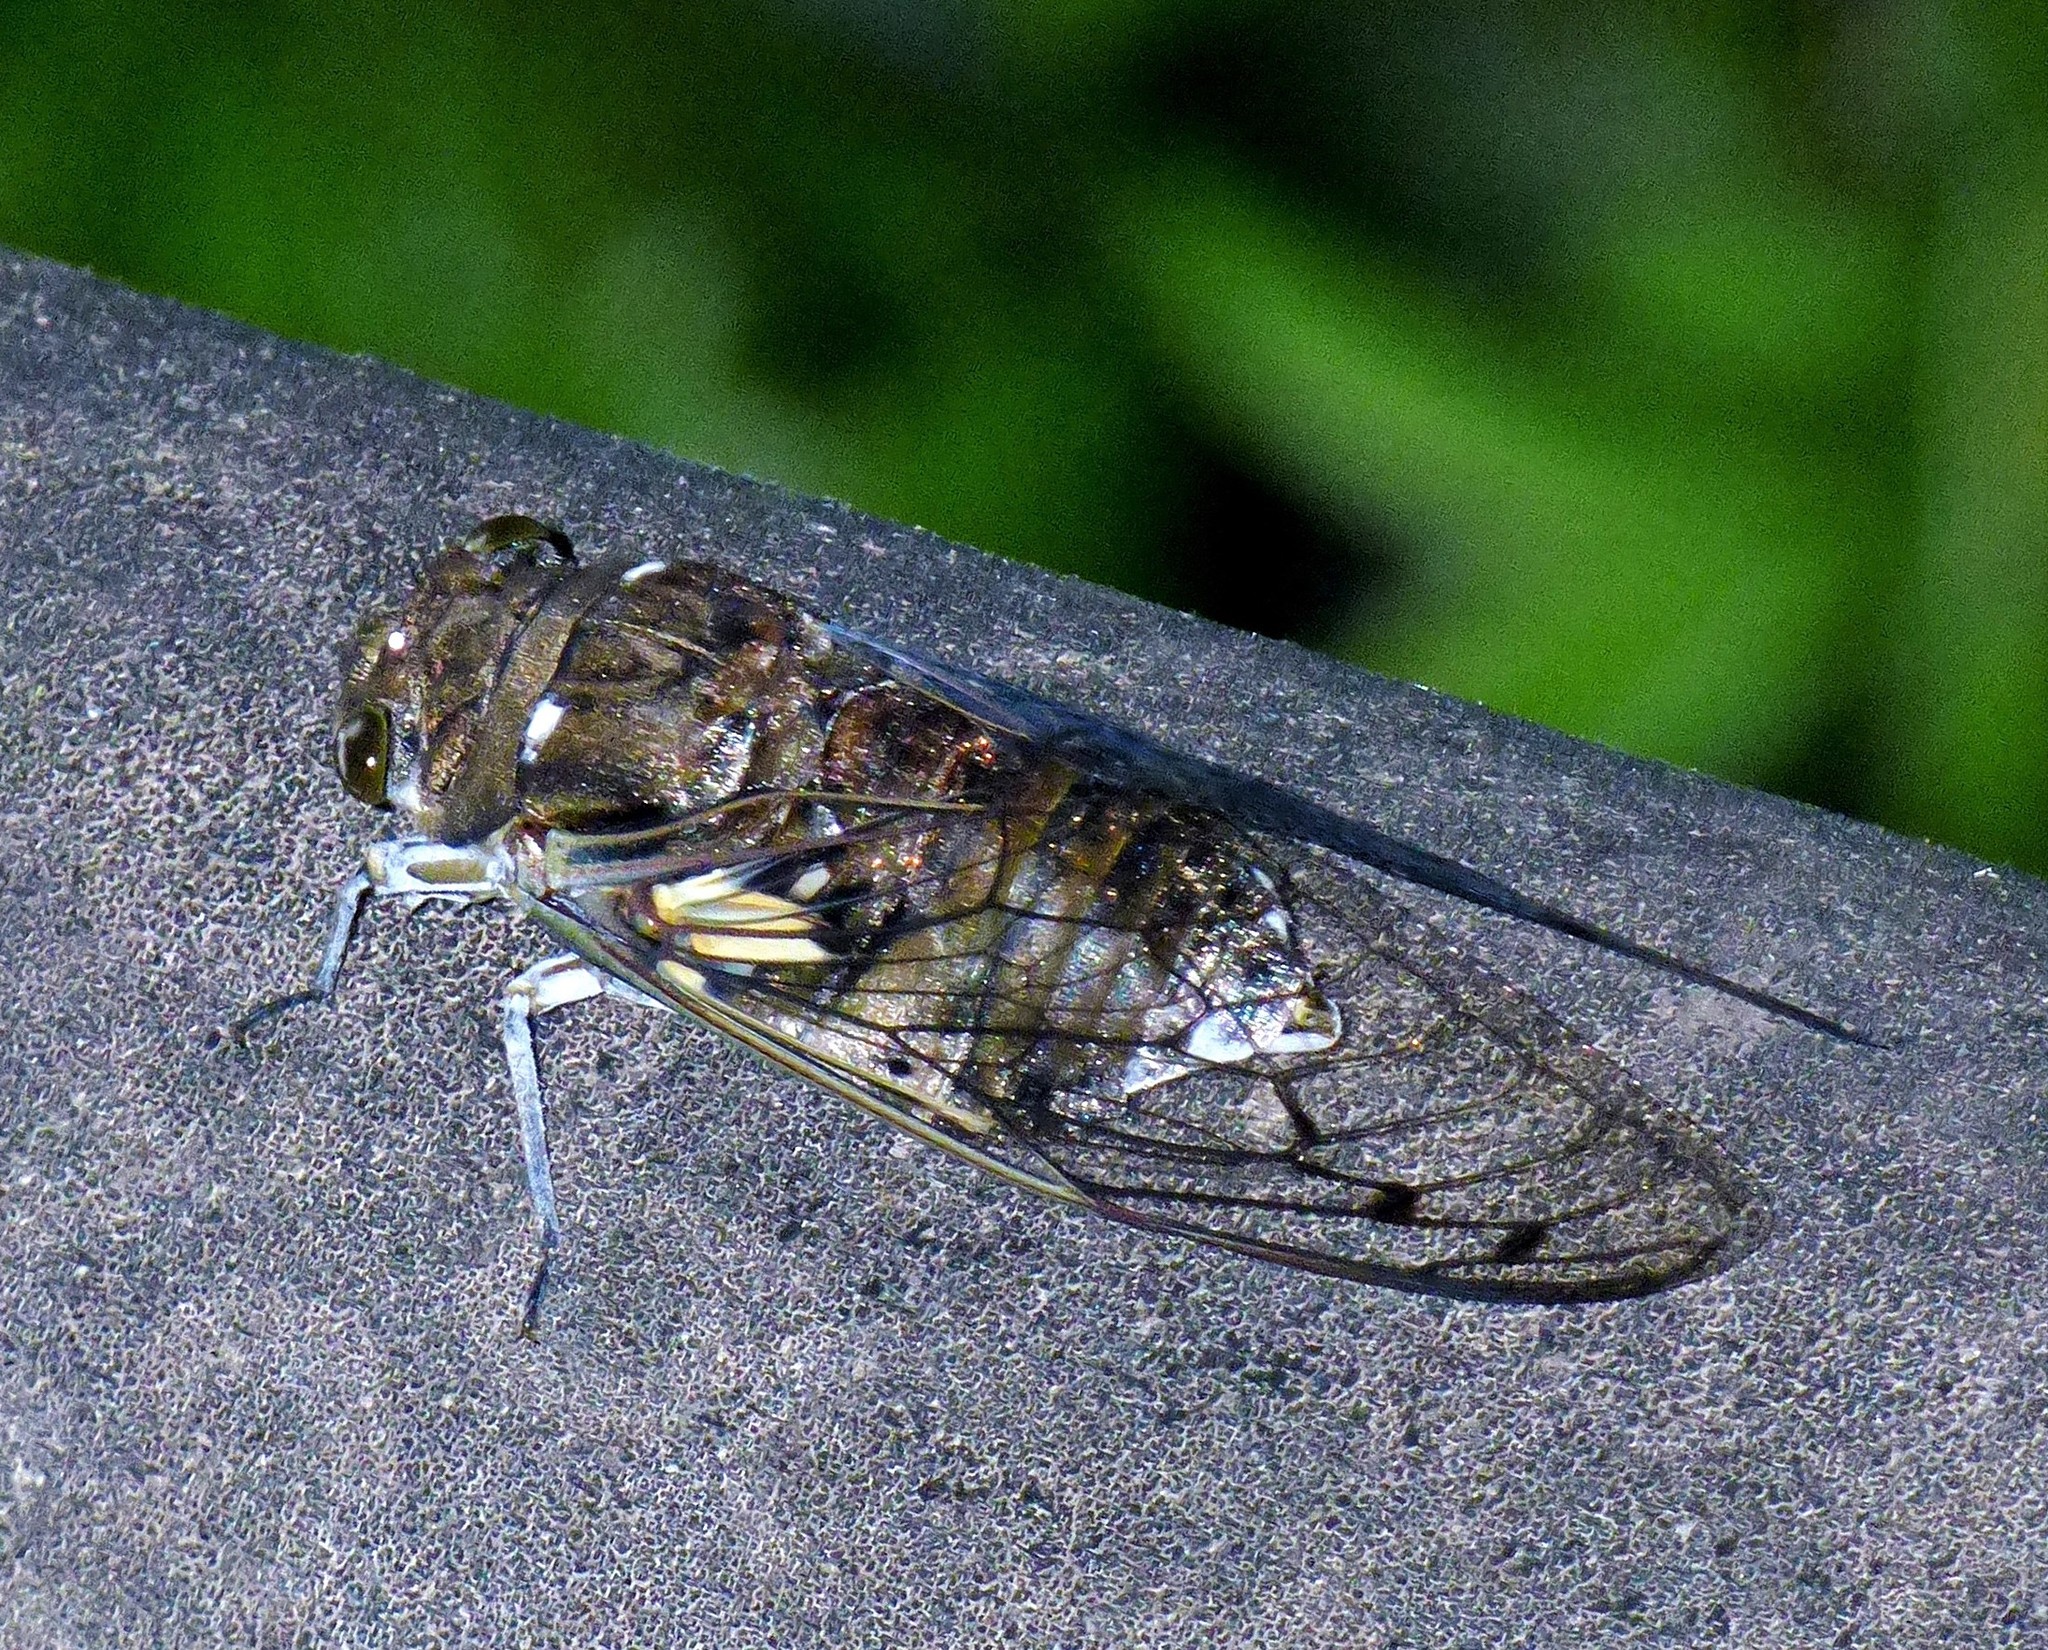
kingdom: Animalia
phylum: Arthropoda
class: Insecta
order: Hemiptera
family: Cicadidae
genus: Quesada
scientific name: Quesada gigas
